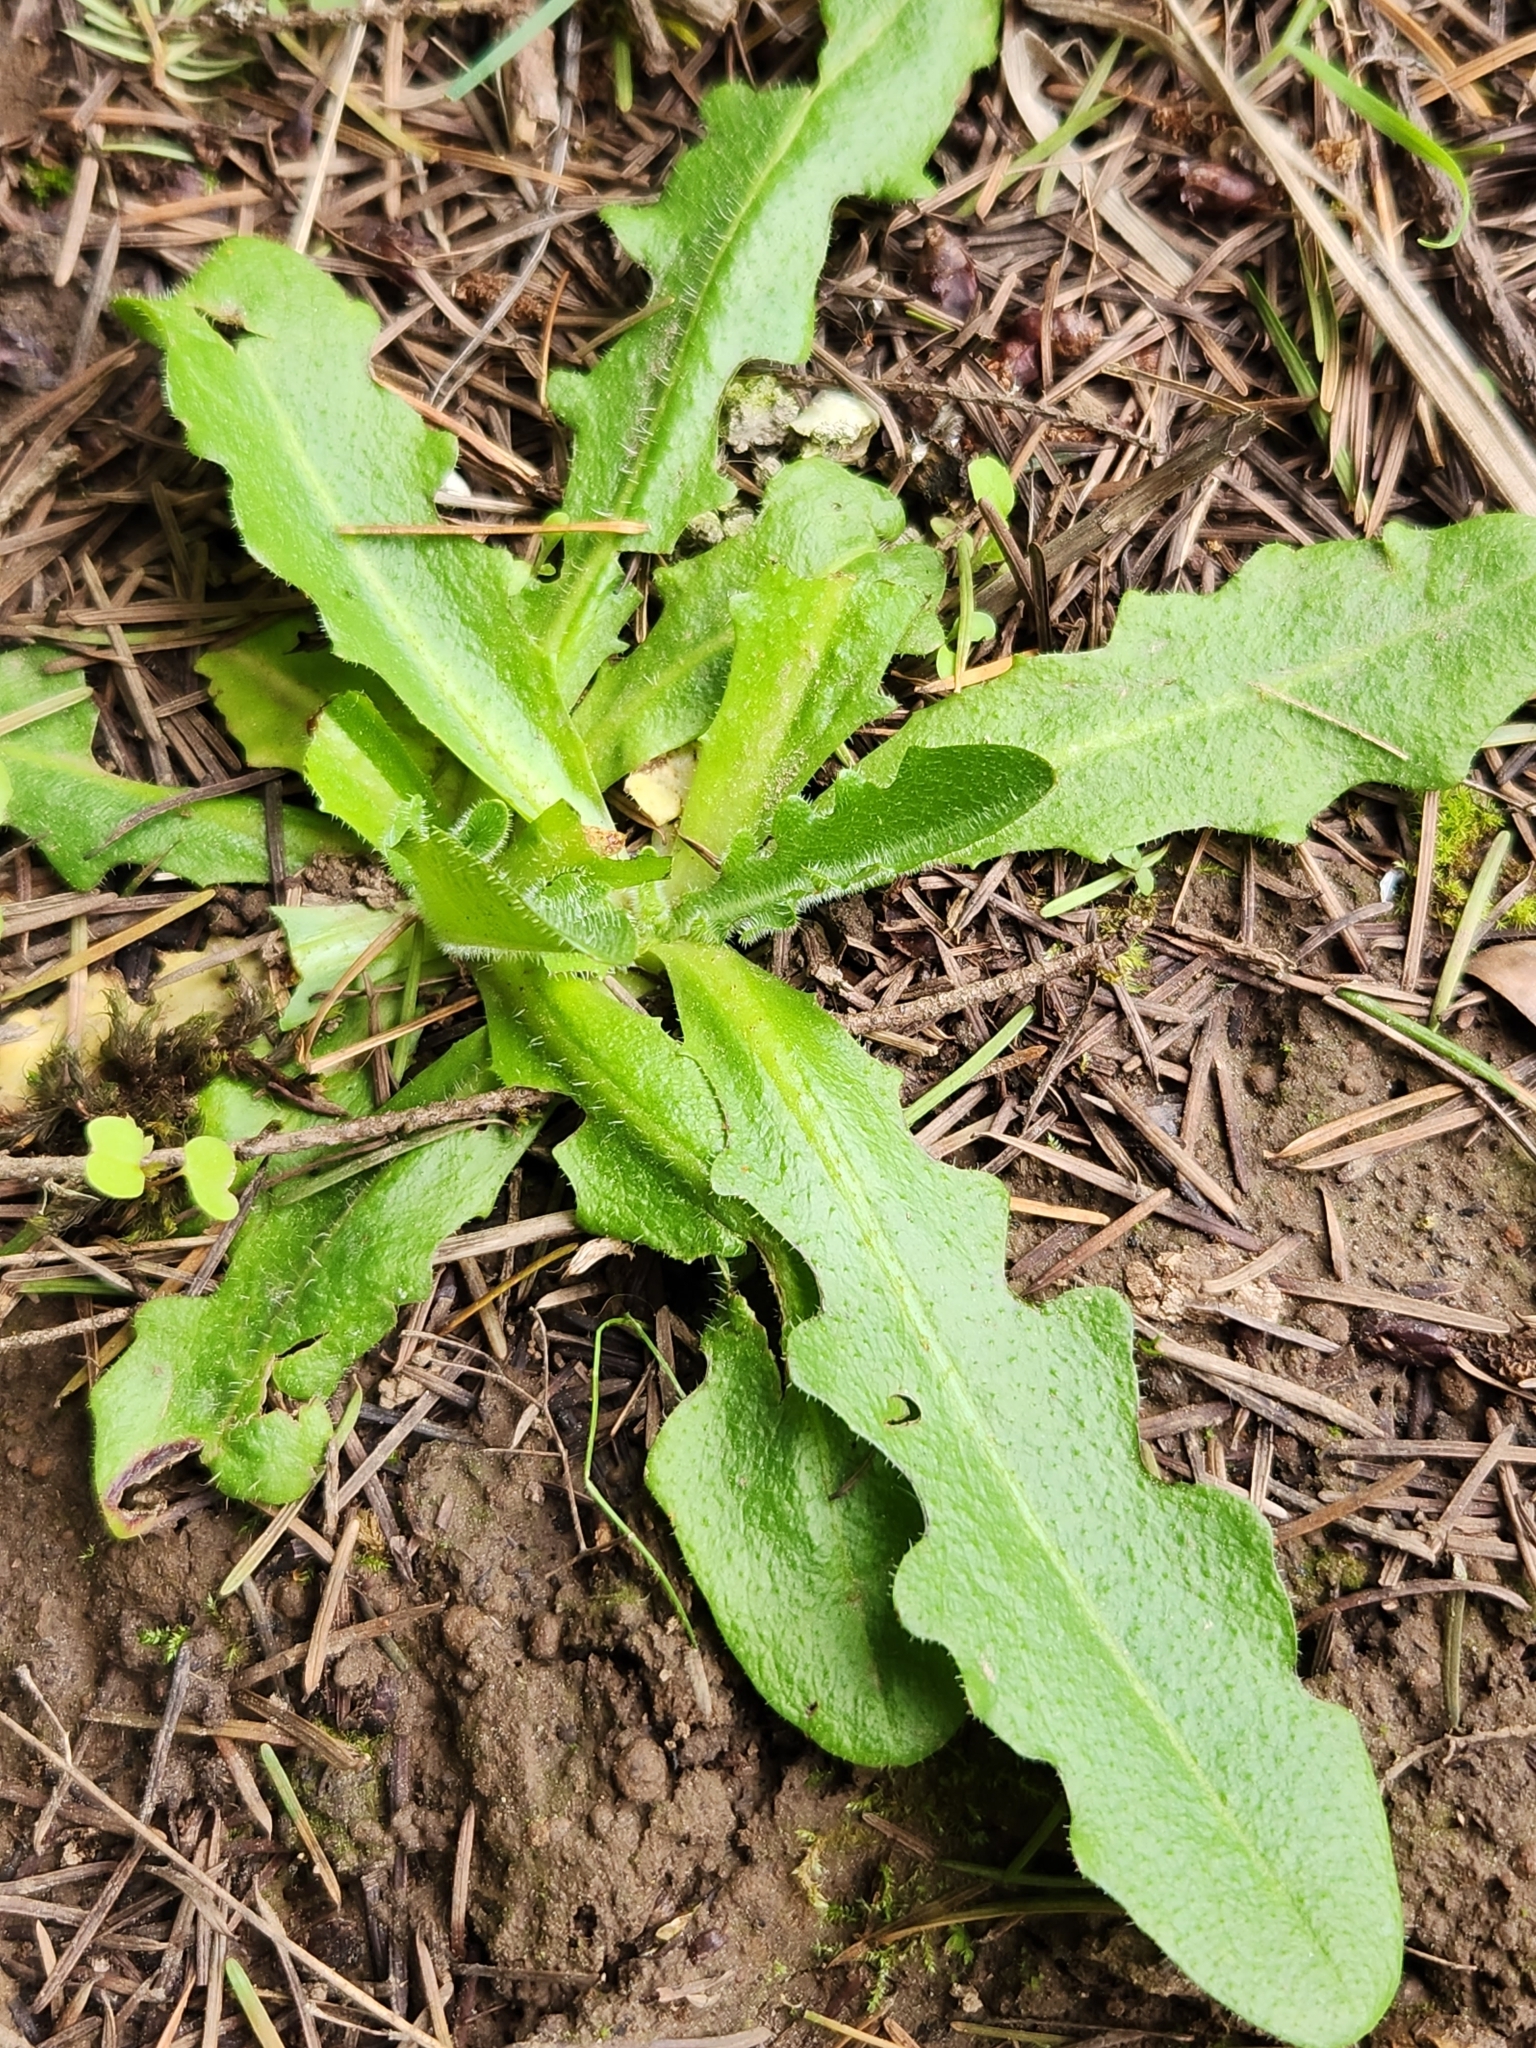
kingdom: Plantae
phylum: Tracheophyta
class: Magnoliopsida
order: Asterales
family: Asteraceae
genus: Hypochaeris
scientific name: Hypochaeris radicata
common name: Flatweed
